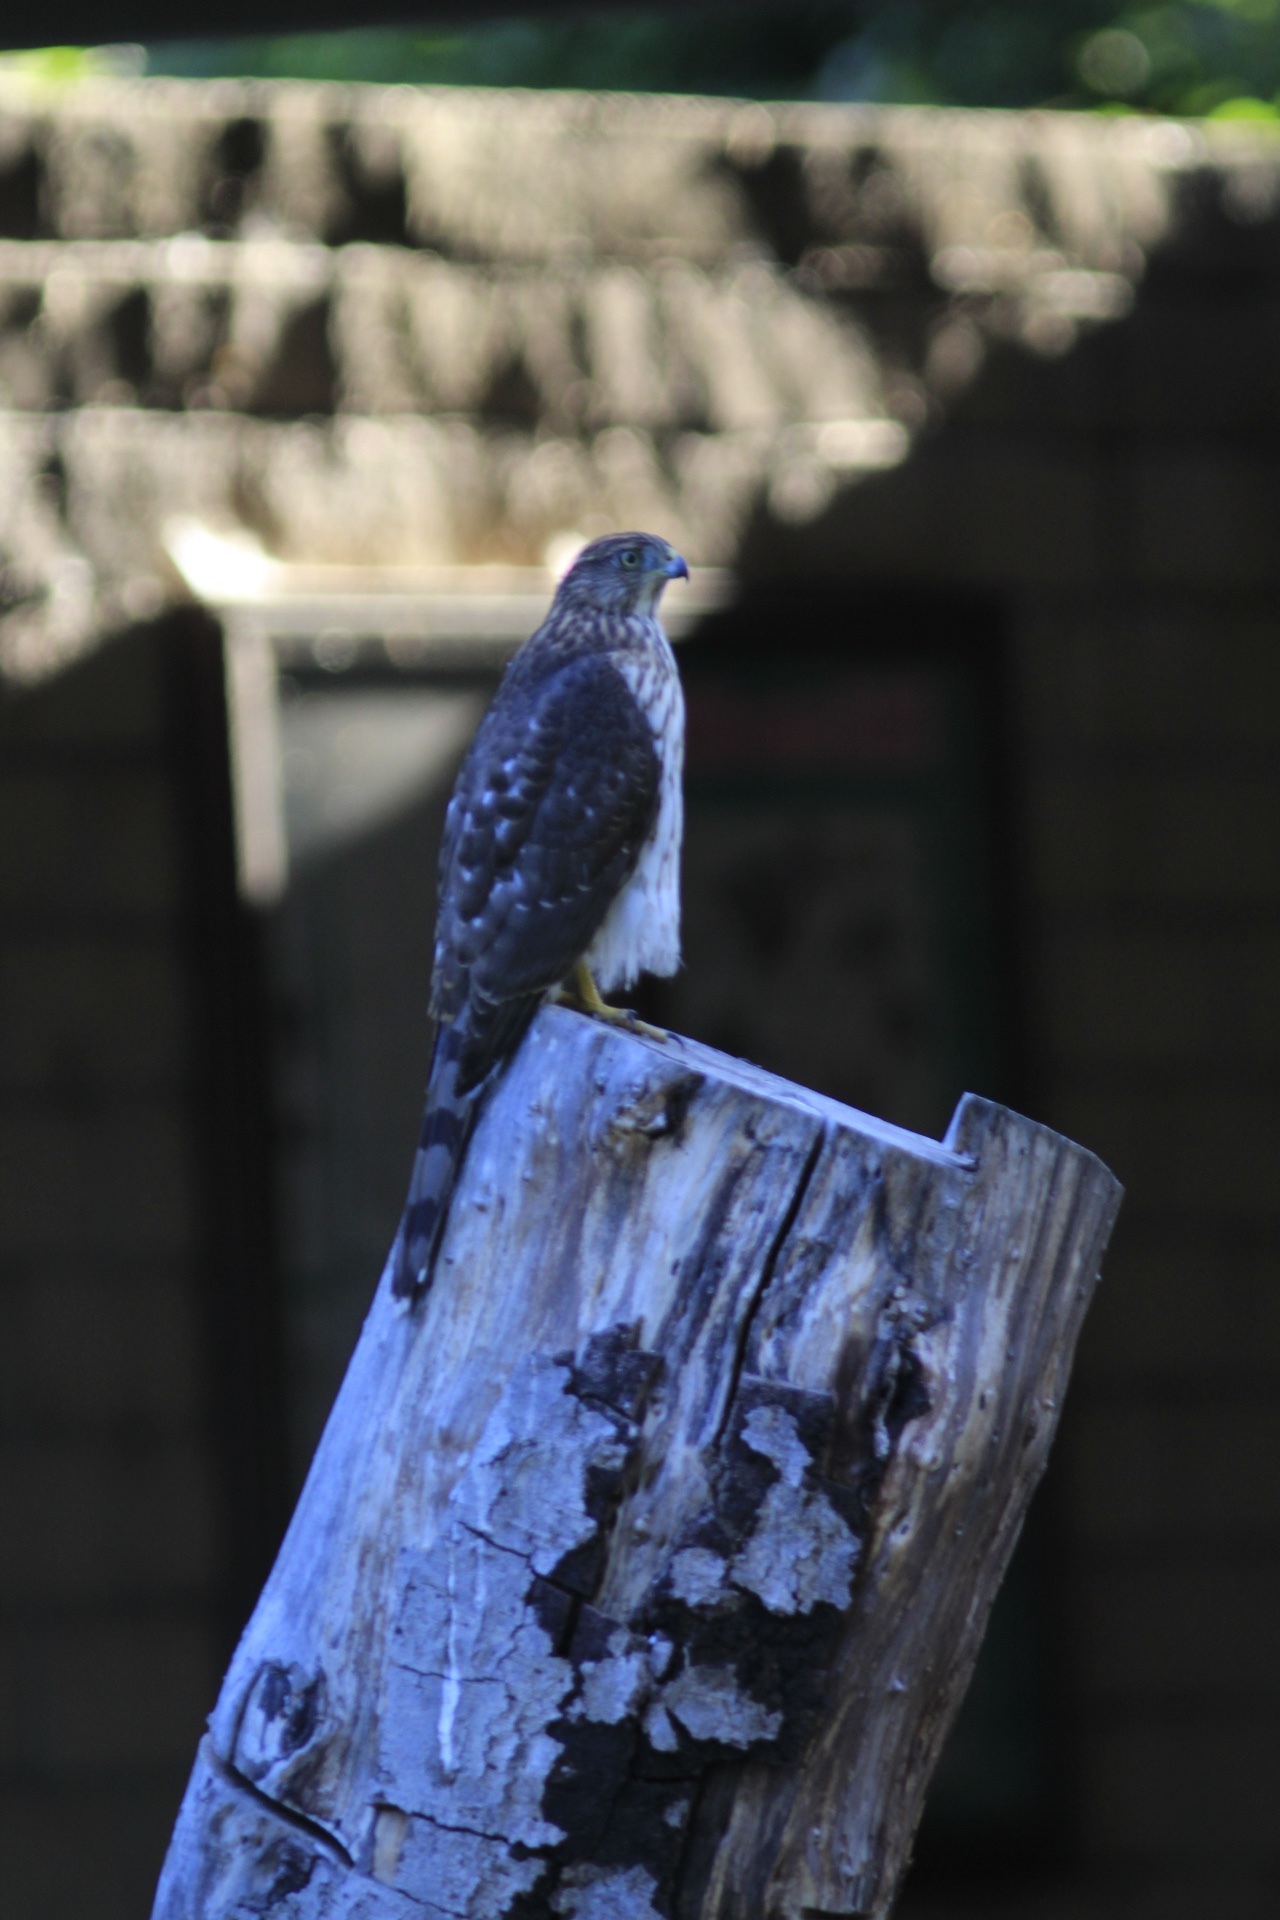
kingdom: Animalia
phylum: Chordata
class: Aves
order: Accipitriformes
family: Accipitridae
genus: Accipiter
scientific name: Accipiter cooperii
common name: Cooper's hawk
